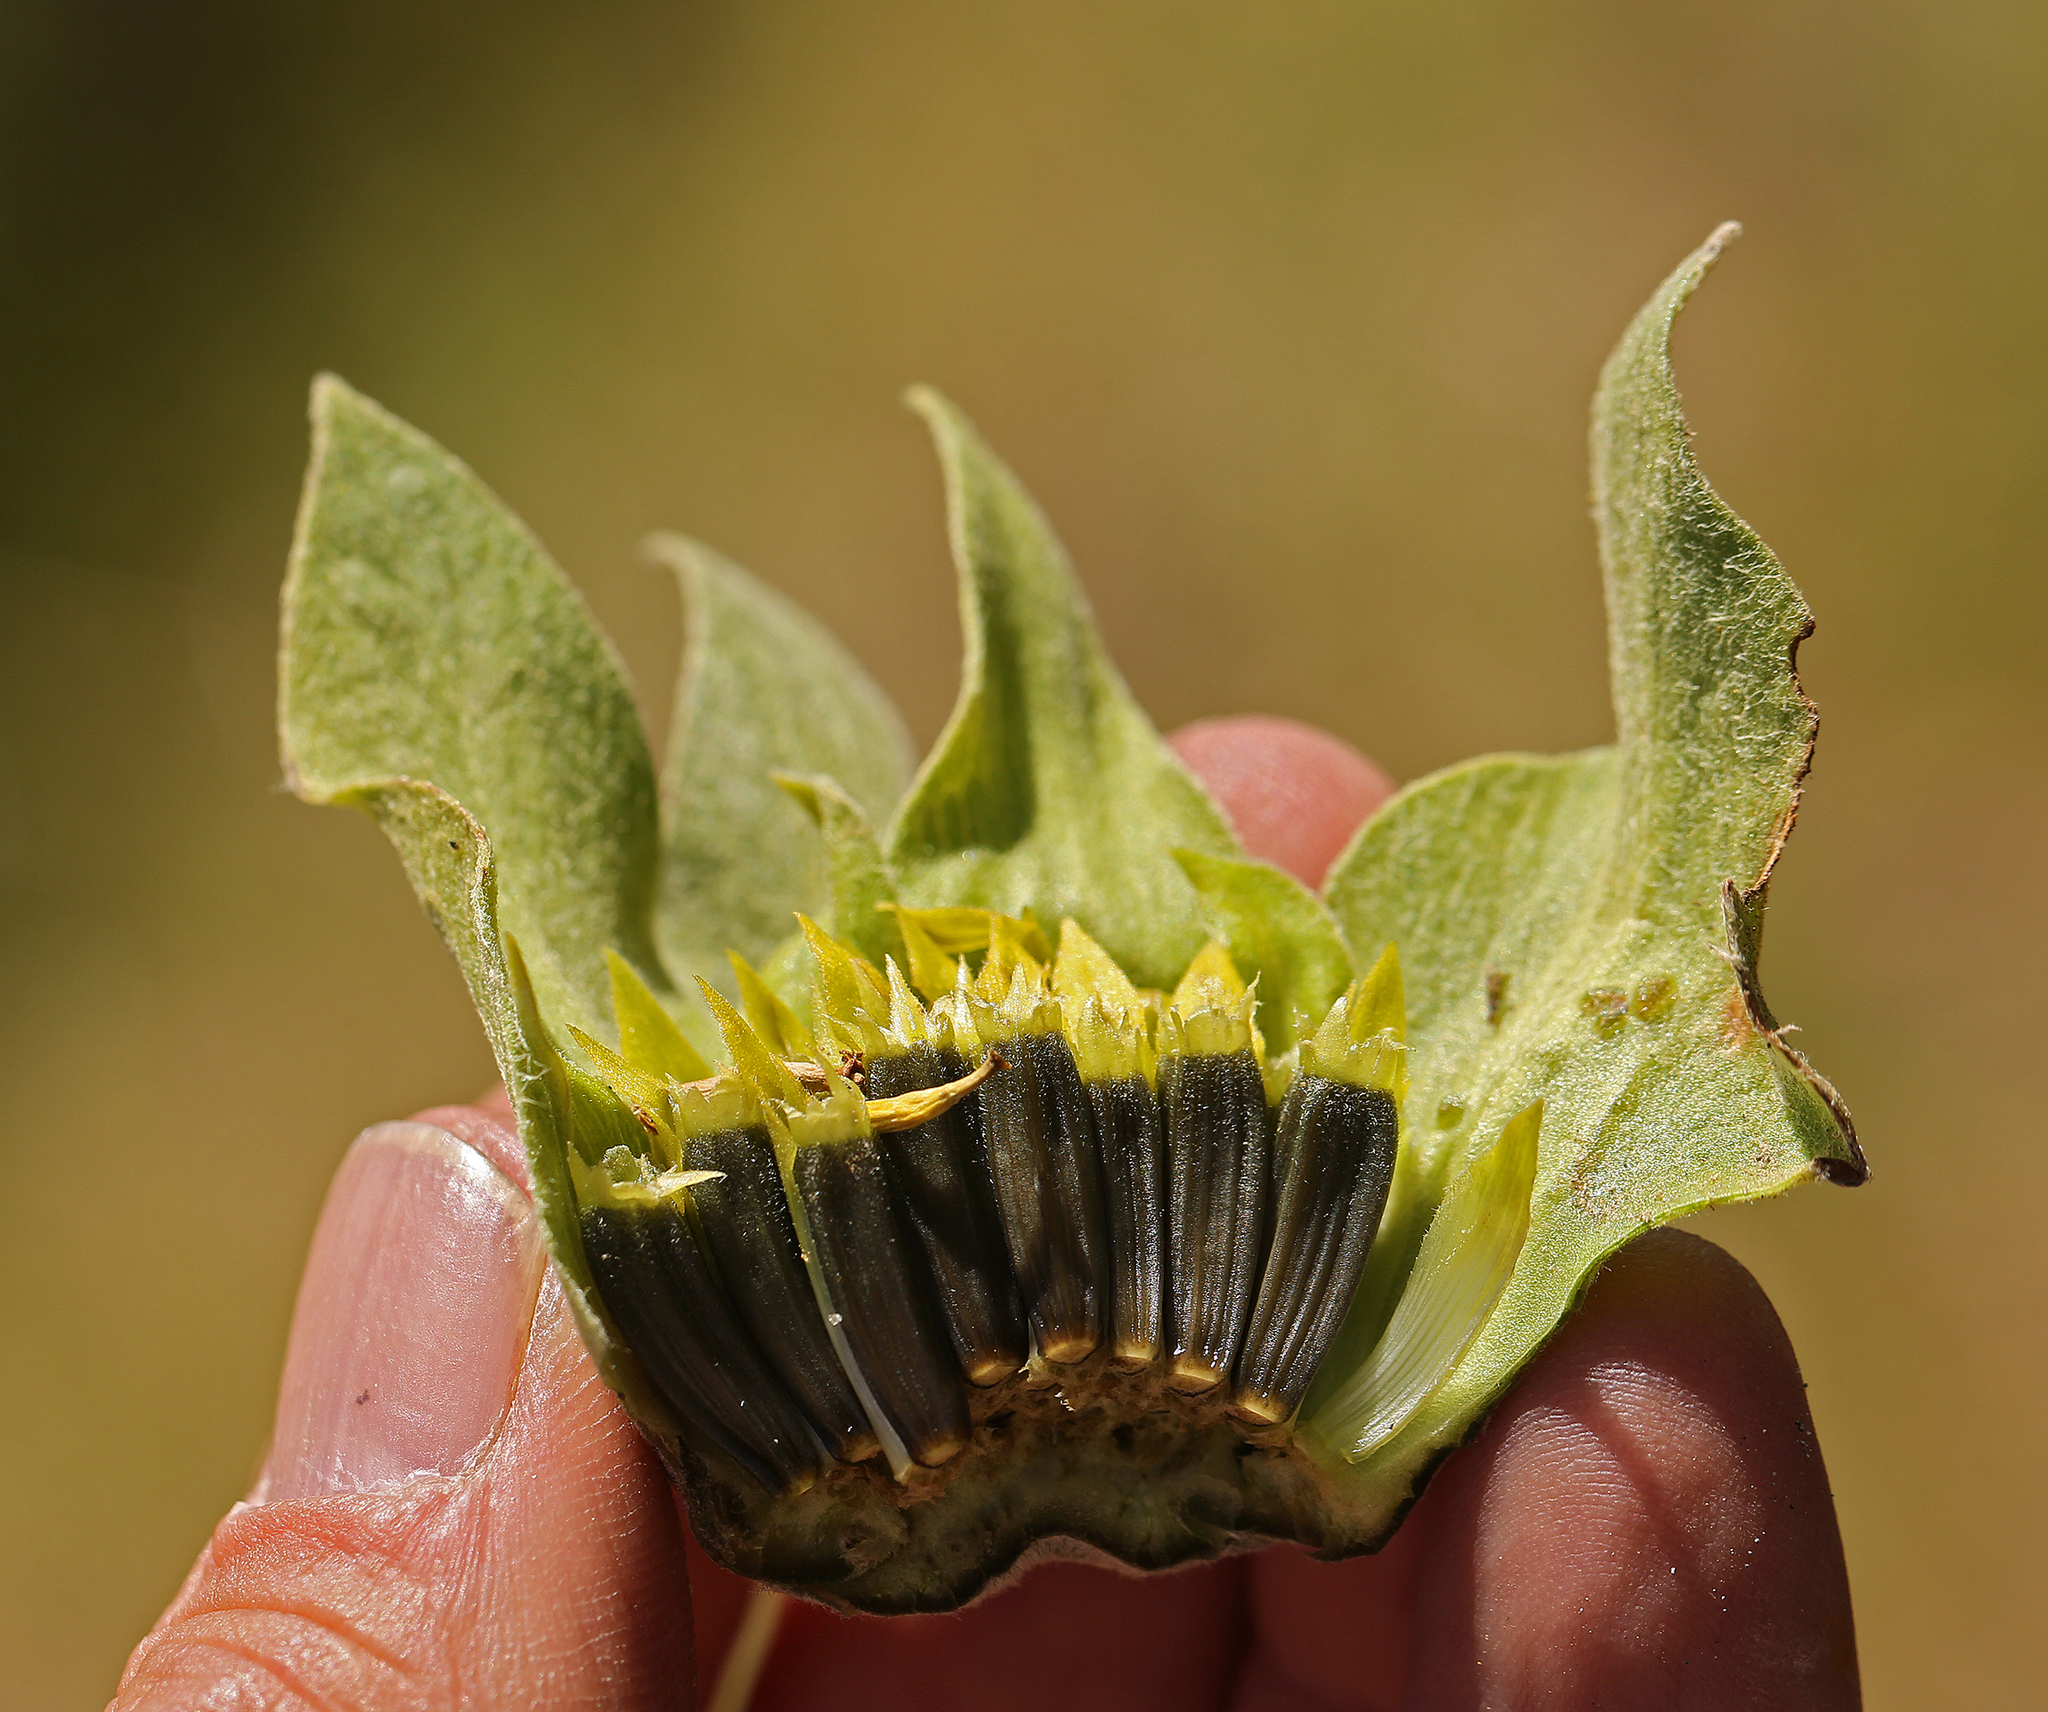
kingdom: Plantae
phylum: Tracheophyta
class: Magnoliopsida
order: Asterales
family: Asteraceae
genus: Wyethia
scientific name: Wyethia glabra
